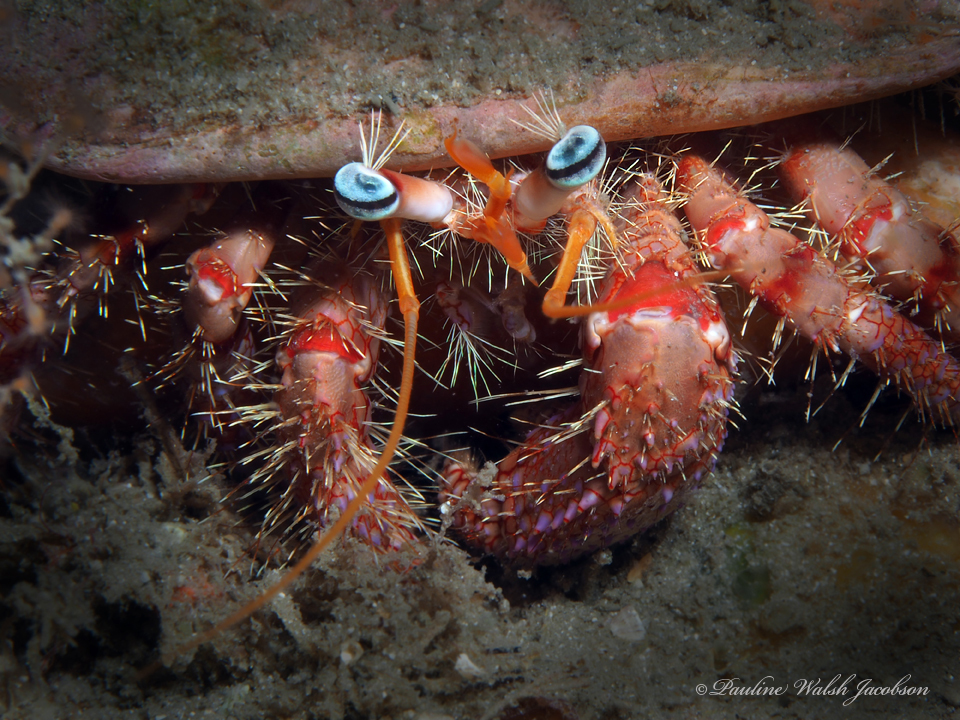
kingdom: Animalia
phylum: Arthropoda
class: Malacostraca
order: Decapoda
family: Diogenidae
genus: Dardanus
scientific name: Dardanus fucosus
